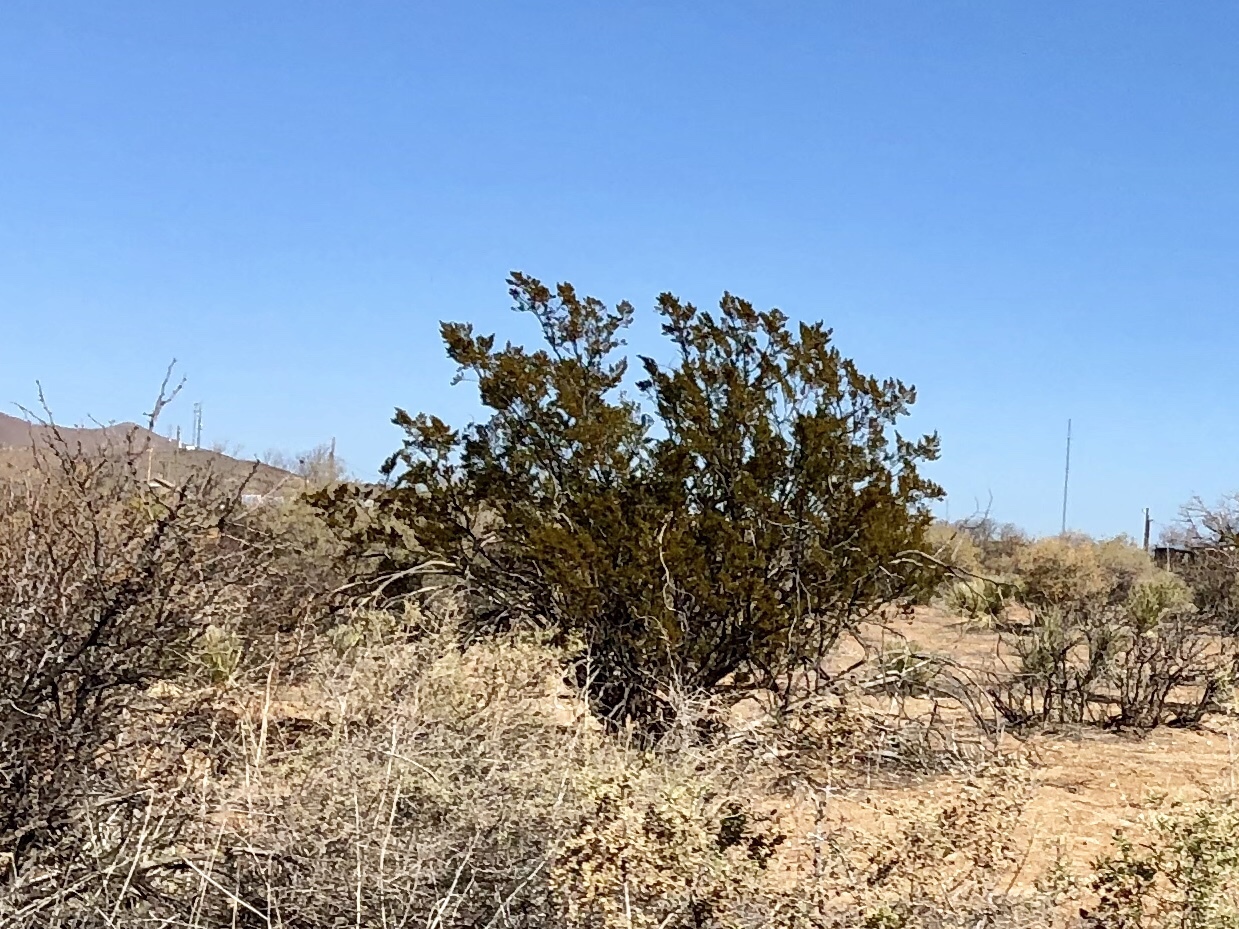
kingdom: Plantae
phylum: Tracheophyta
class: Magnoliopsida
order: Zygophyllales
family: Zygophyllaceae
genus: Larrea
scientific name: Larrea tridentata
